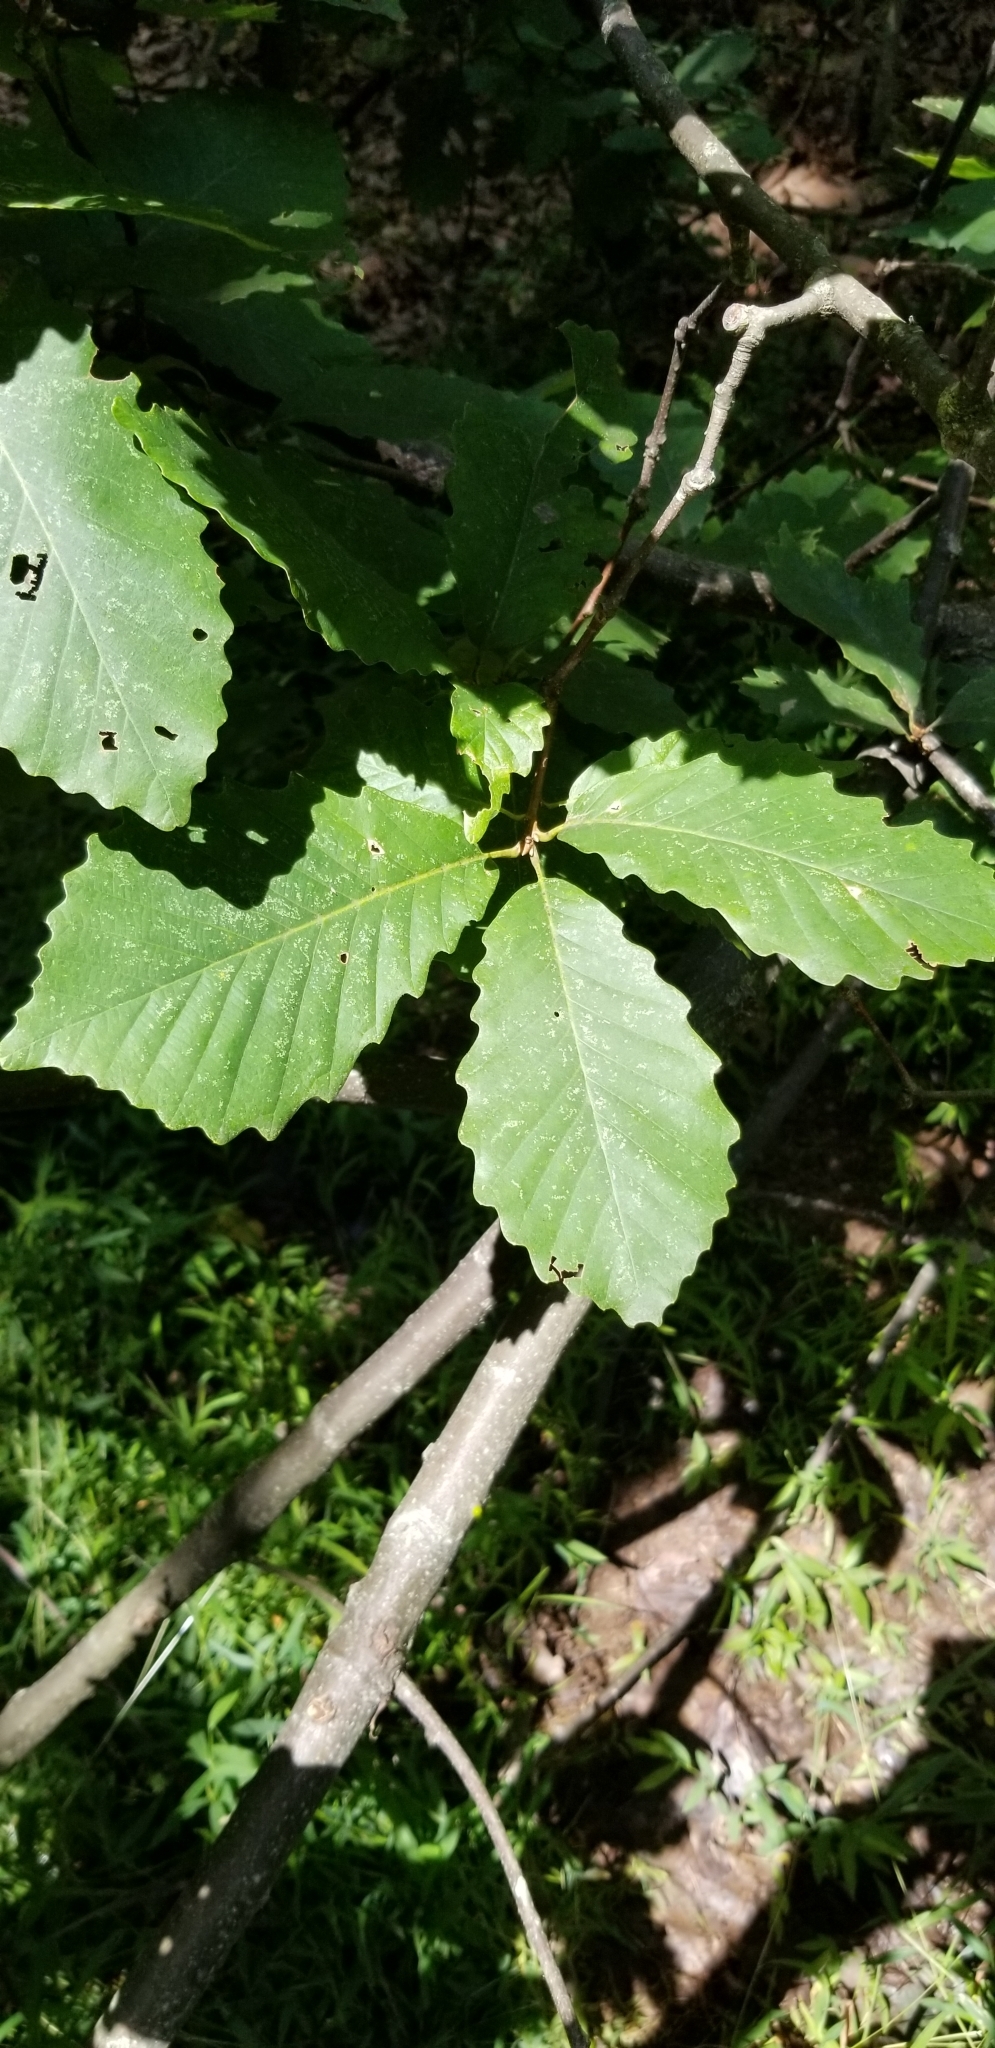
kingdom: Plantae
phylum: Tracheophyta
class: Magnoliopsida
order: Fagales
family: Fagaceae
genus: Quercus
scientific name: Quercus montana
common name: Chestnut oak
